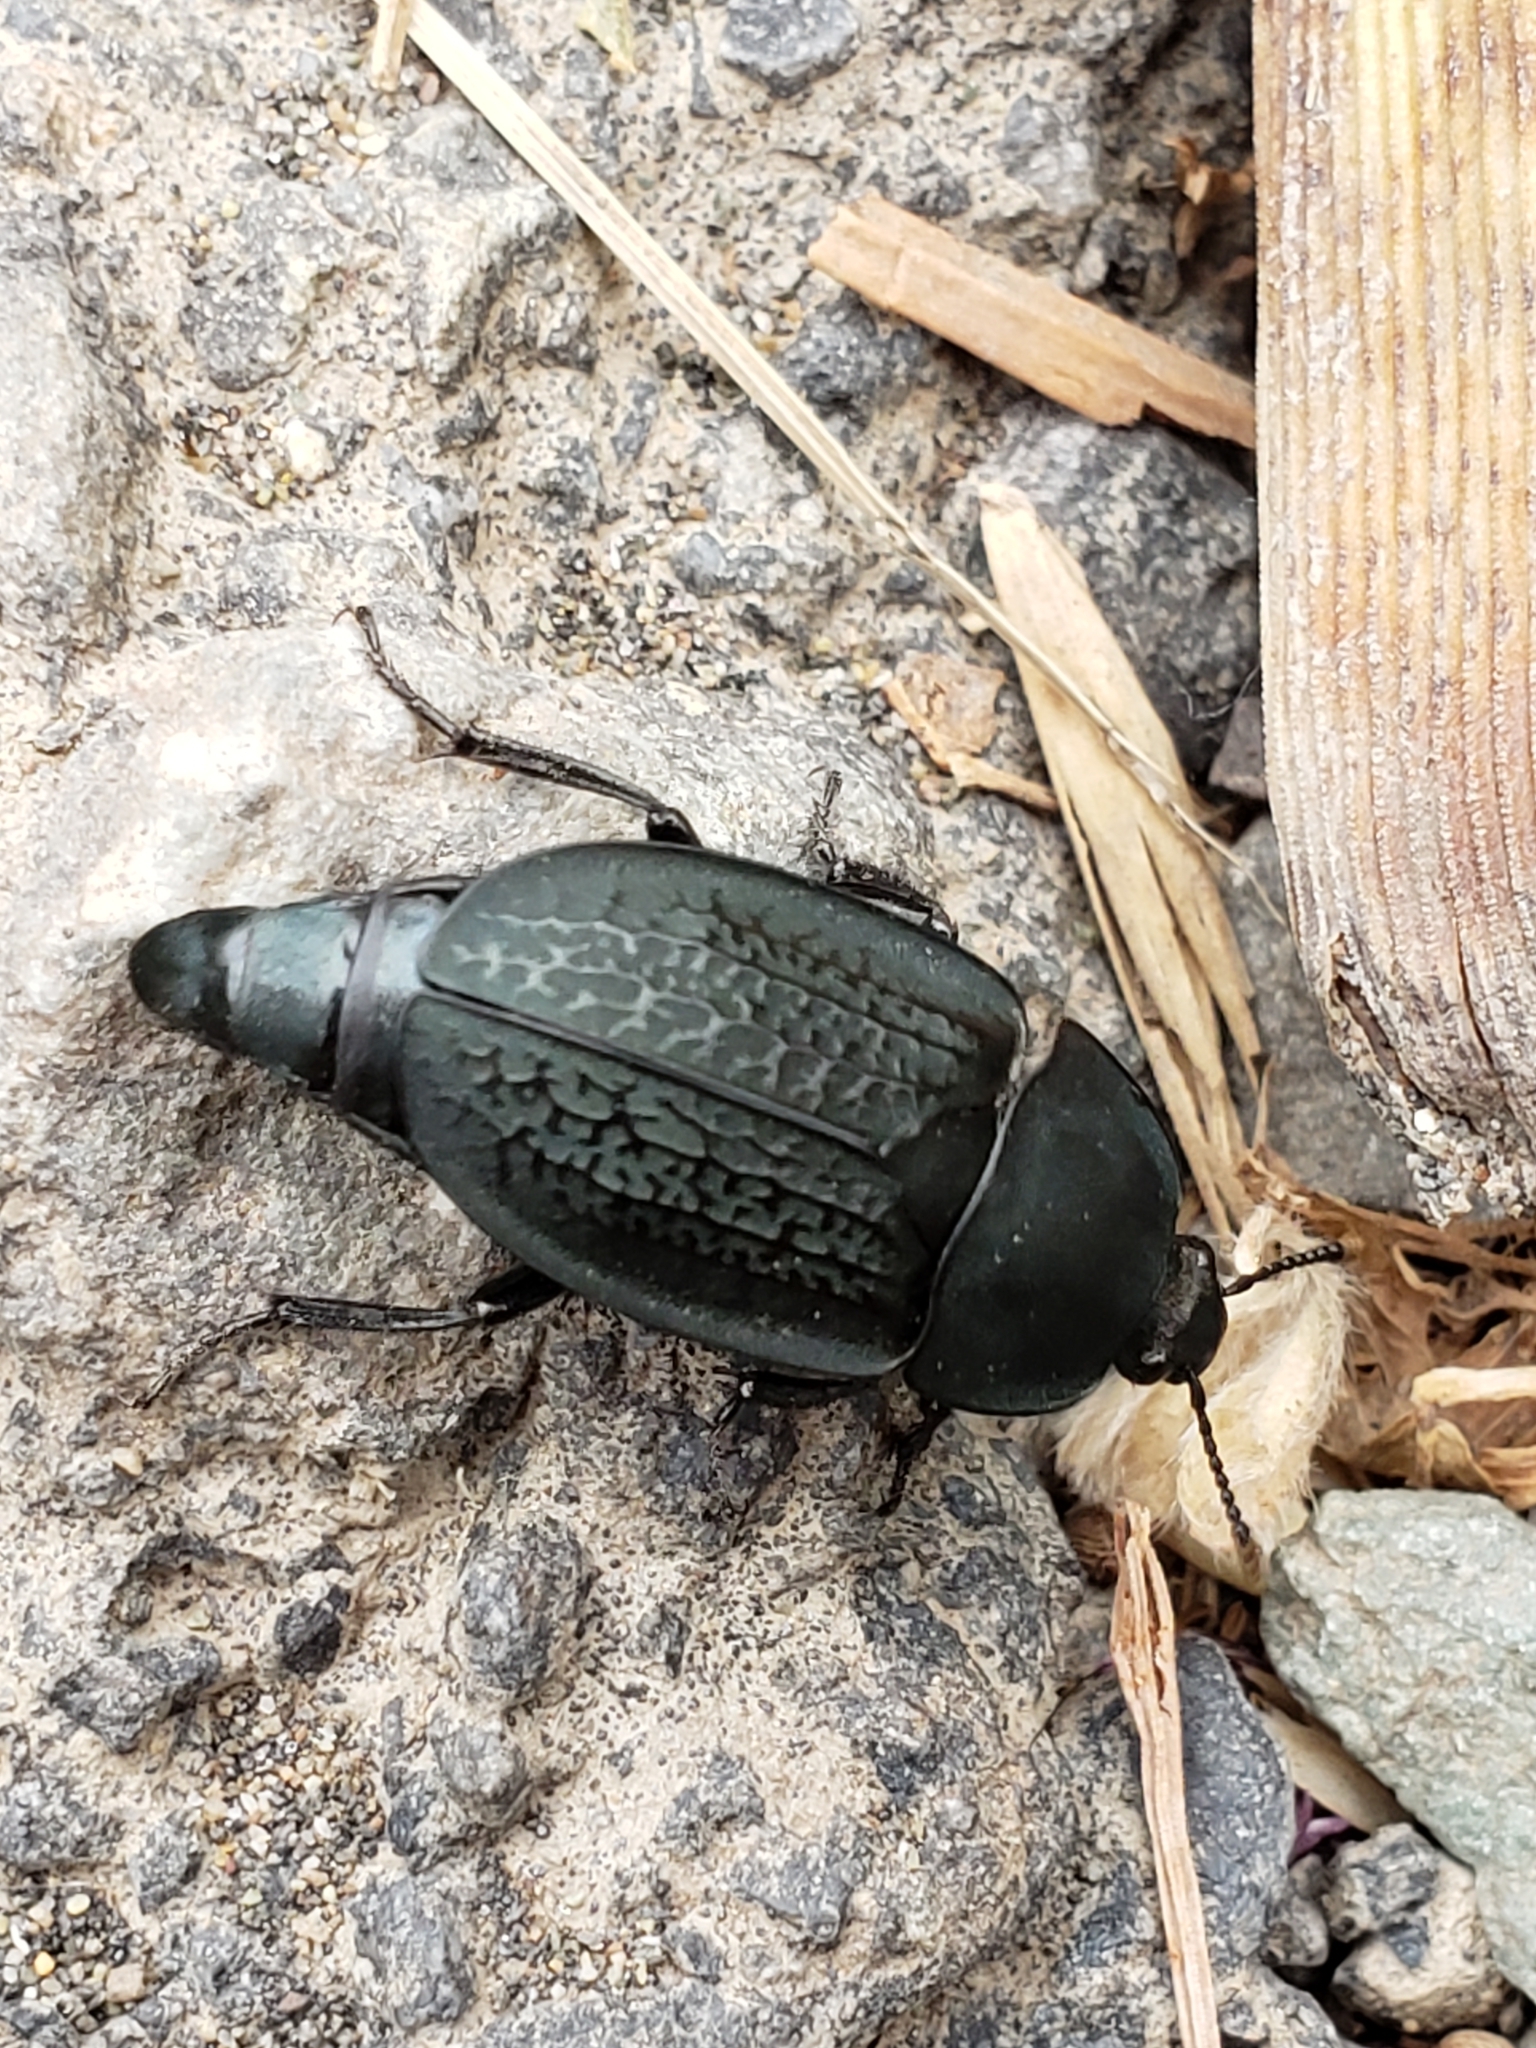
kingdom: Animalia
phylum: Arthropoda
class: Insecta
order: Coleoptera
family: Staphylinidae
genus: Heterosilpha
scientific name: Heterosilpha ramosa
